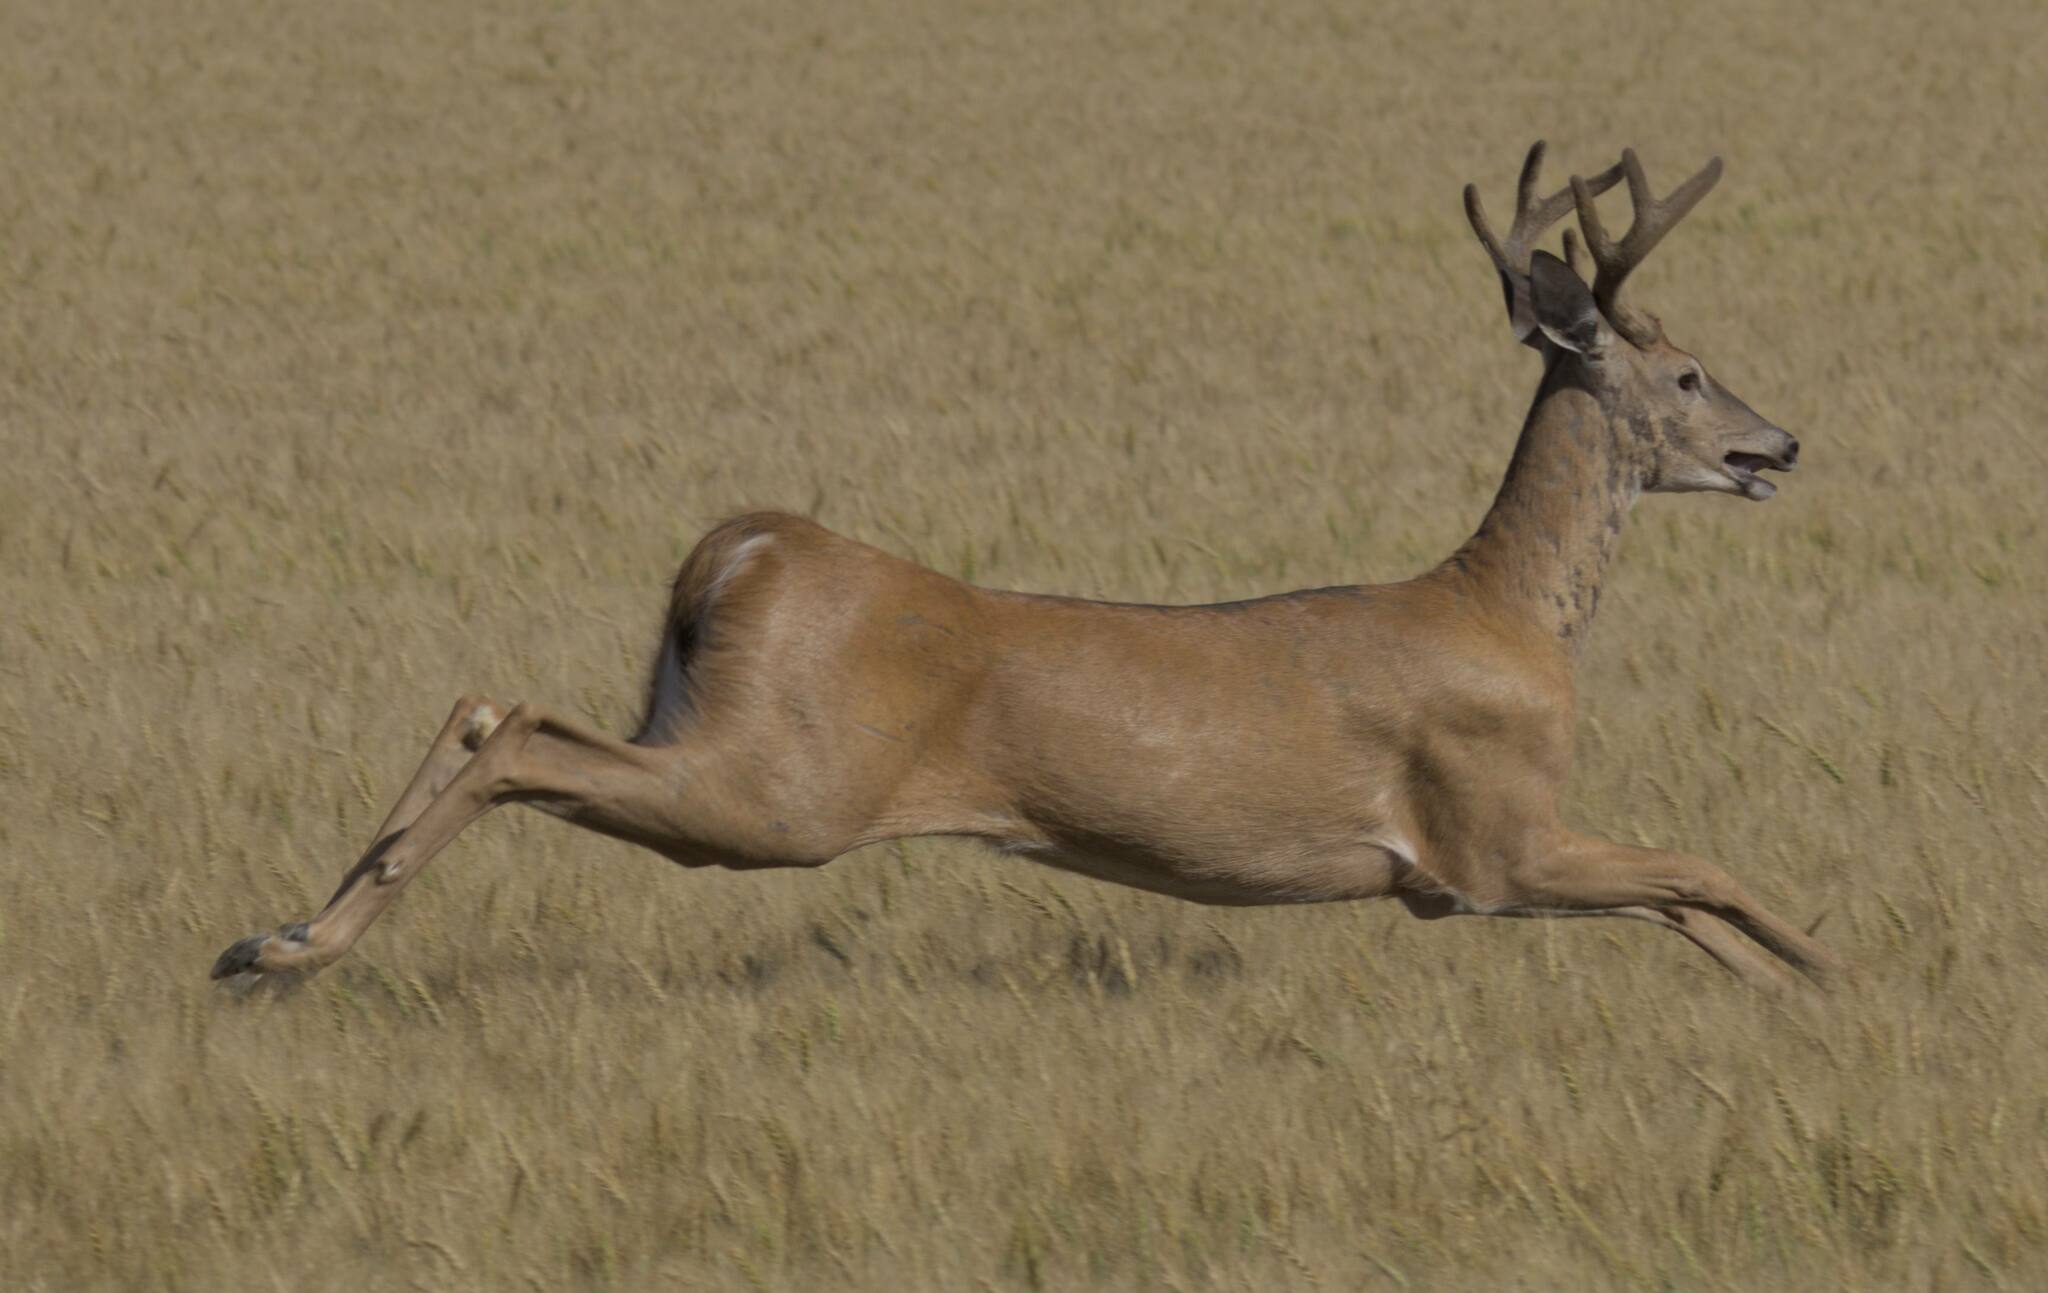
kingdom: Animalia
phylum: Chordata
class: Mammalia
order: Artiodactyla
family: Cervidae
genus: Odocoileus
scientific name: Odocoileus virginianus
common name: White-tailed deer
